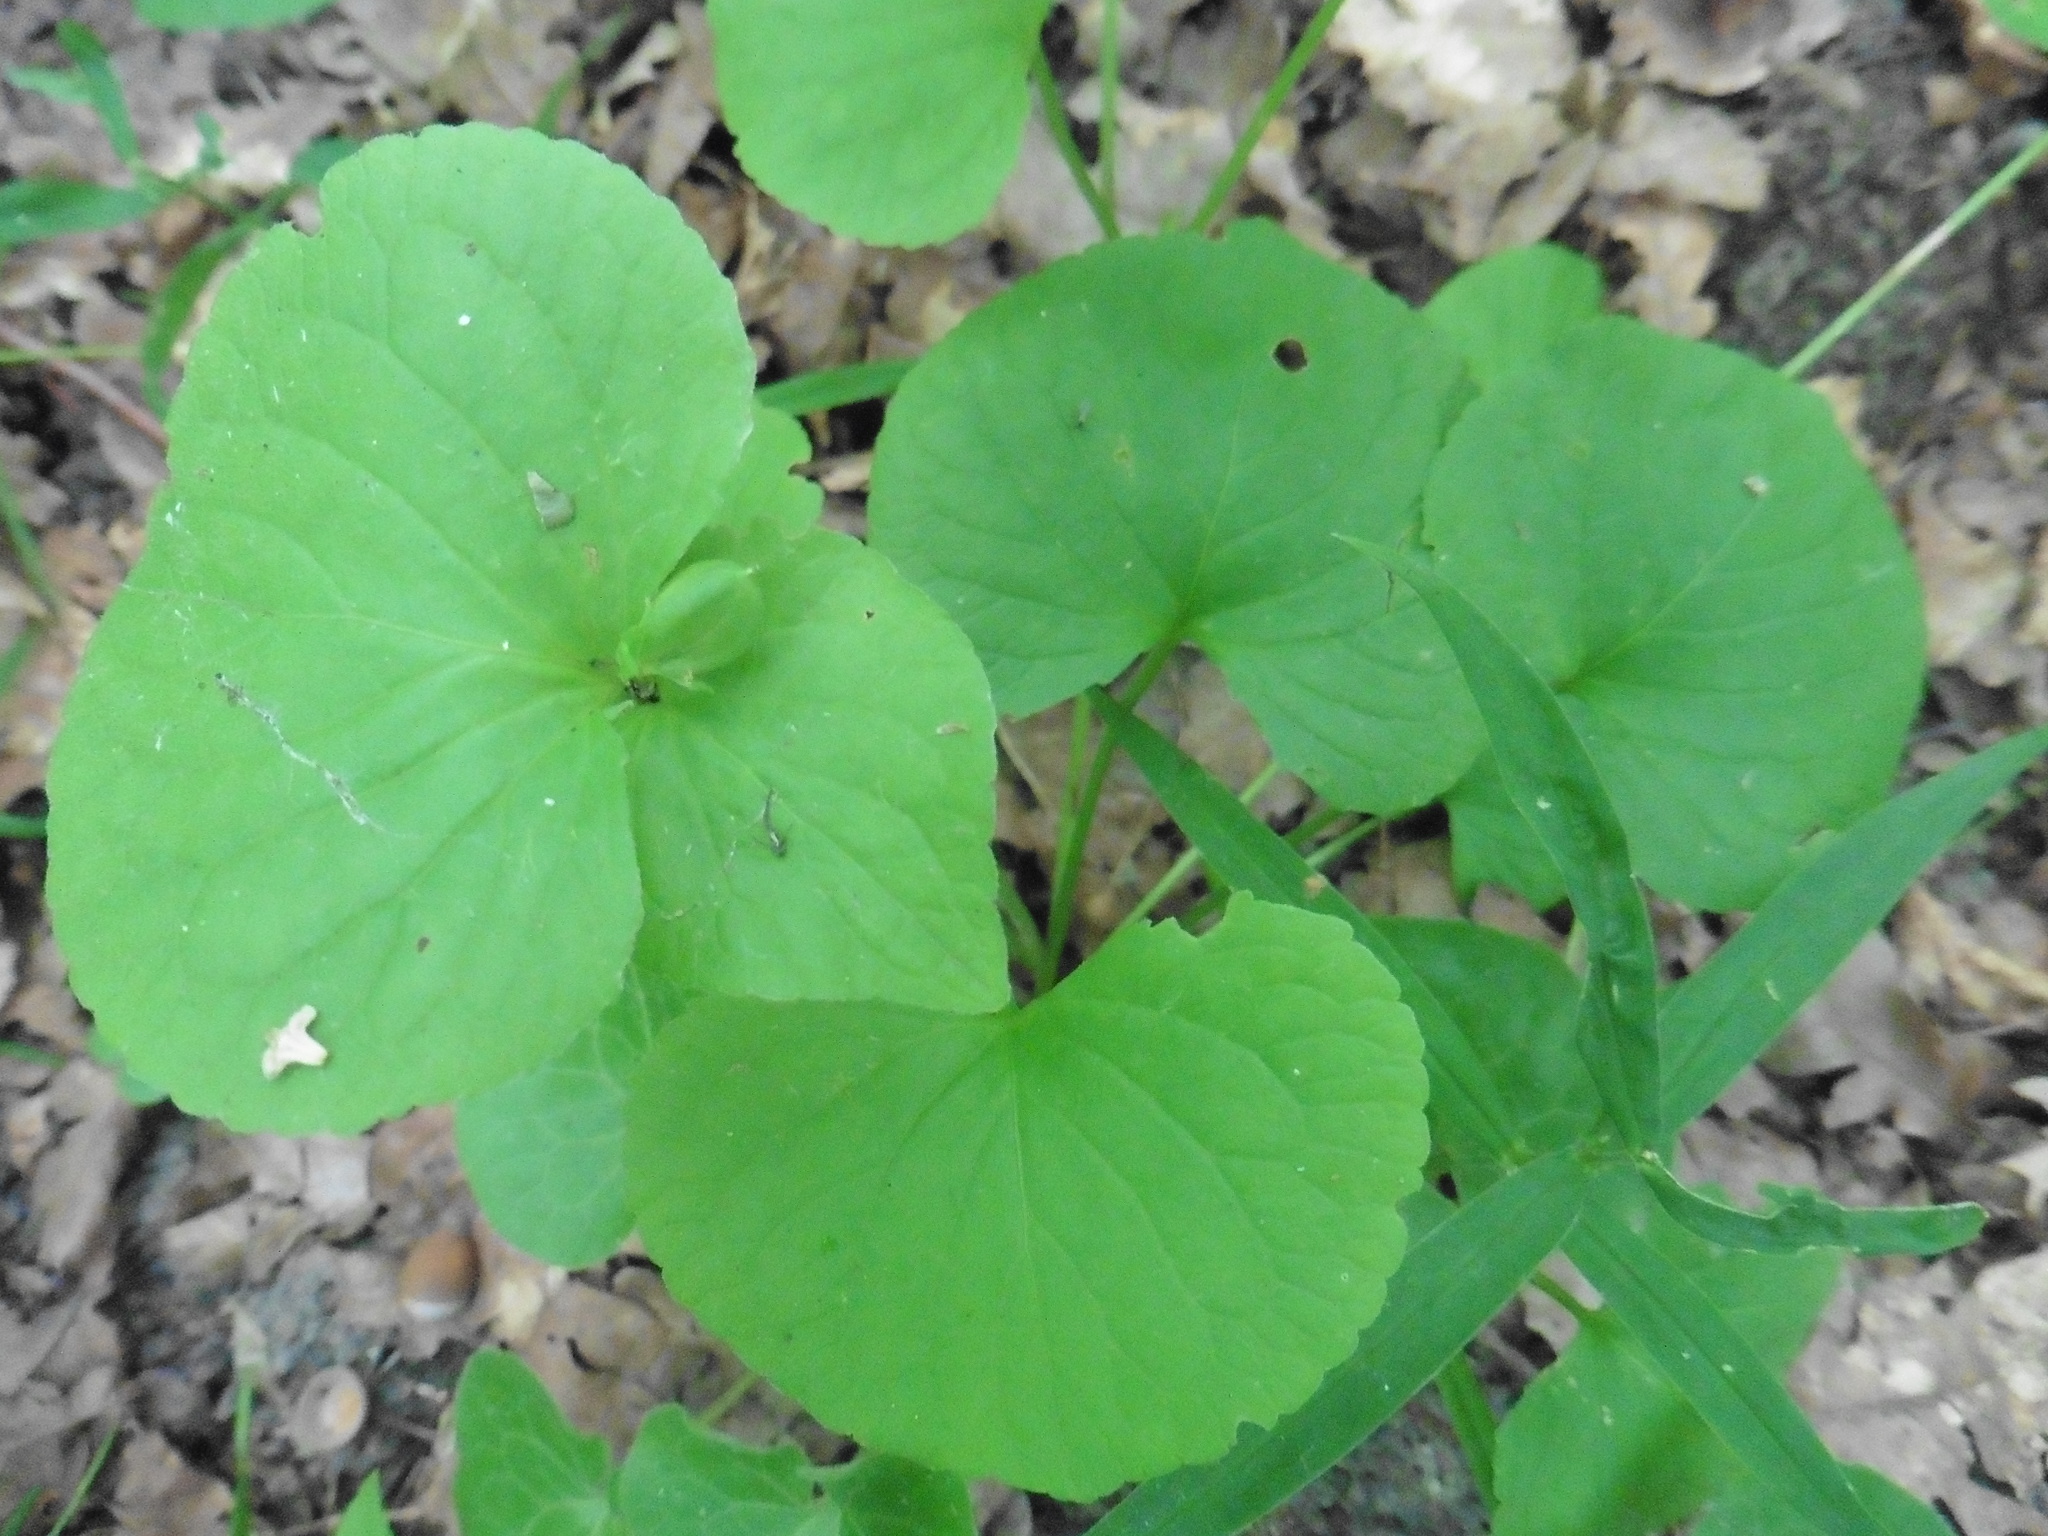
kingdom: Plantae
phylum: Tracheophyta
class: Magnoliopsida
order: Malpighiales
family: Violaceae
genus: Viola
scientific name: Viola mirabilis
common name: Wonder violet
